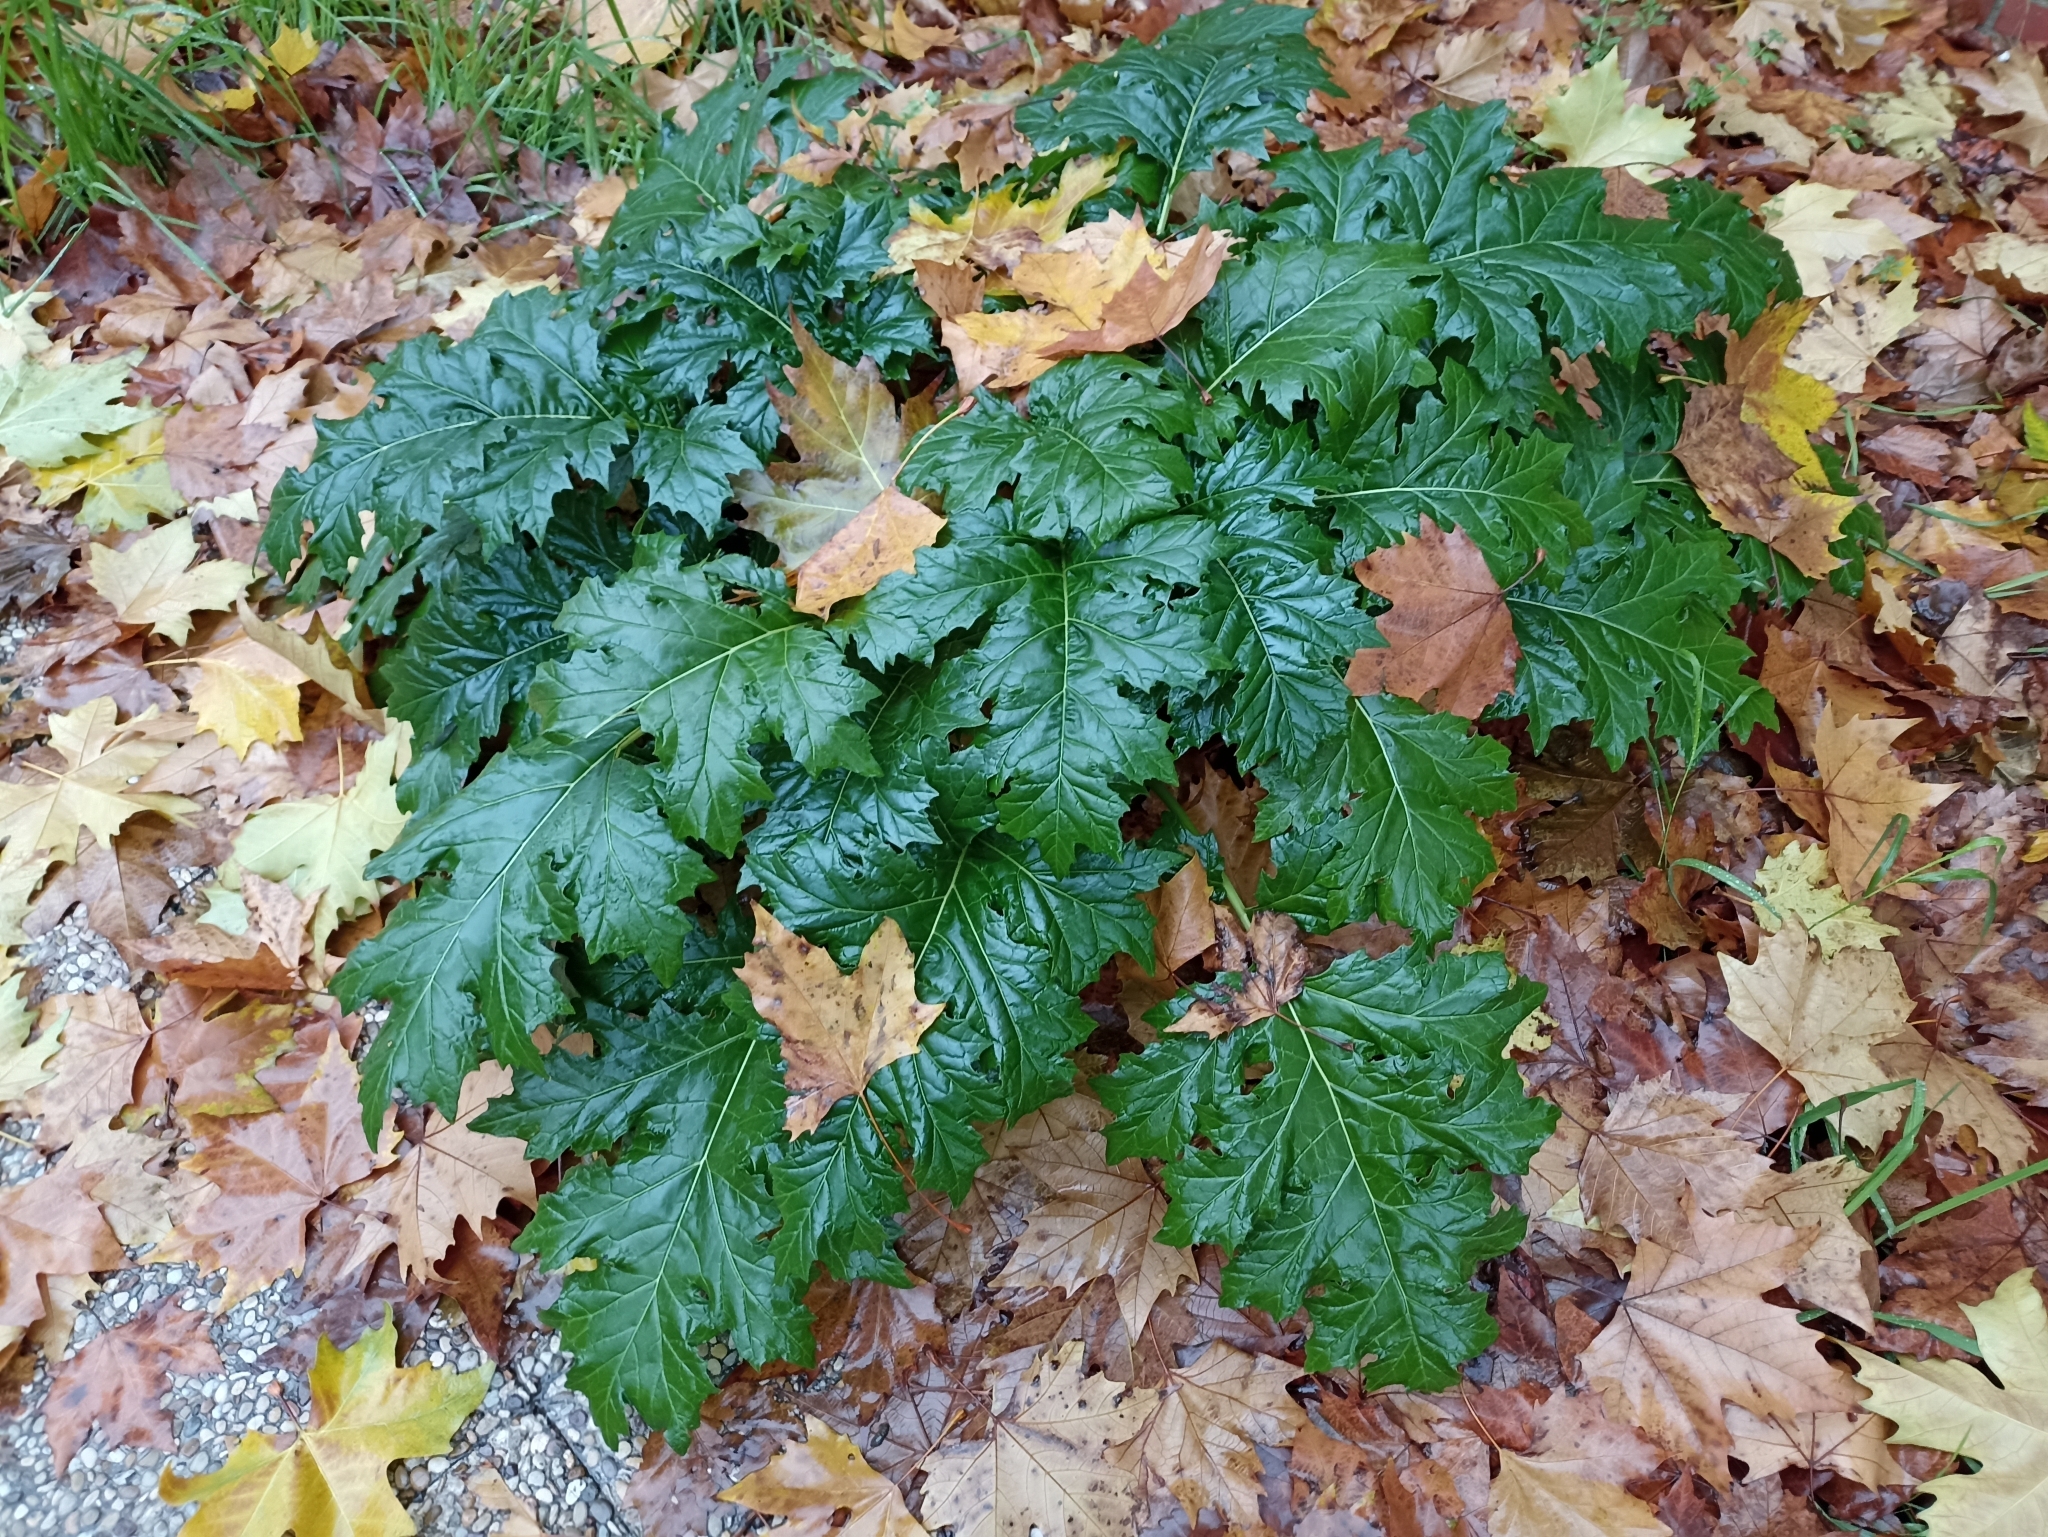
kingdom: Plantae
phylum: Tracheophyta
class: Magnoliopsida
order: Lamiales
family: Acanthaceae
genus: Acanthus
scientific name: Acanthus mollis
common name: Bear's-breech
